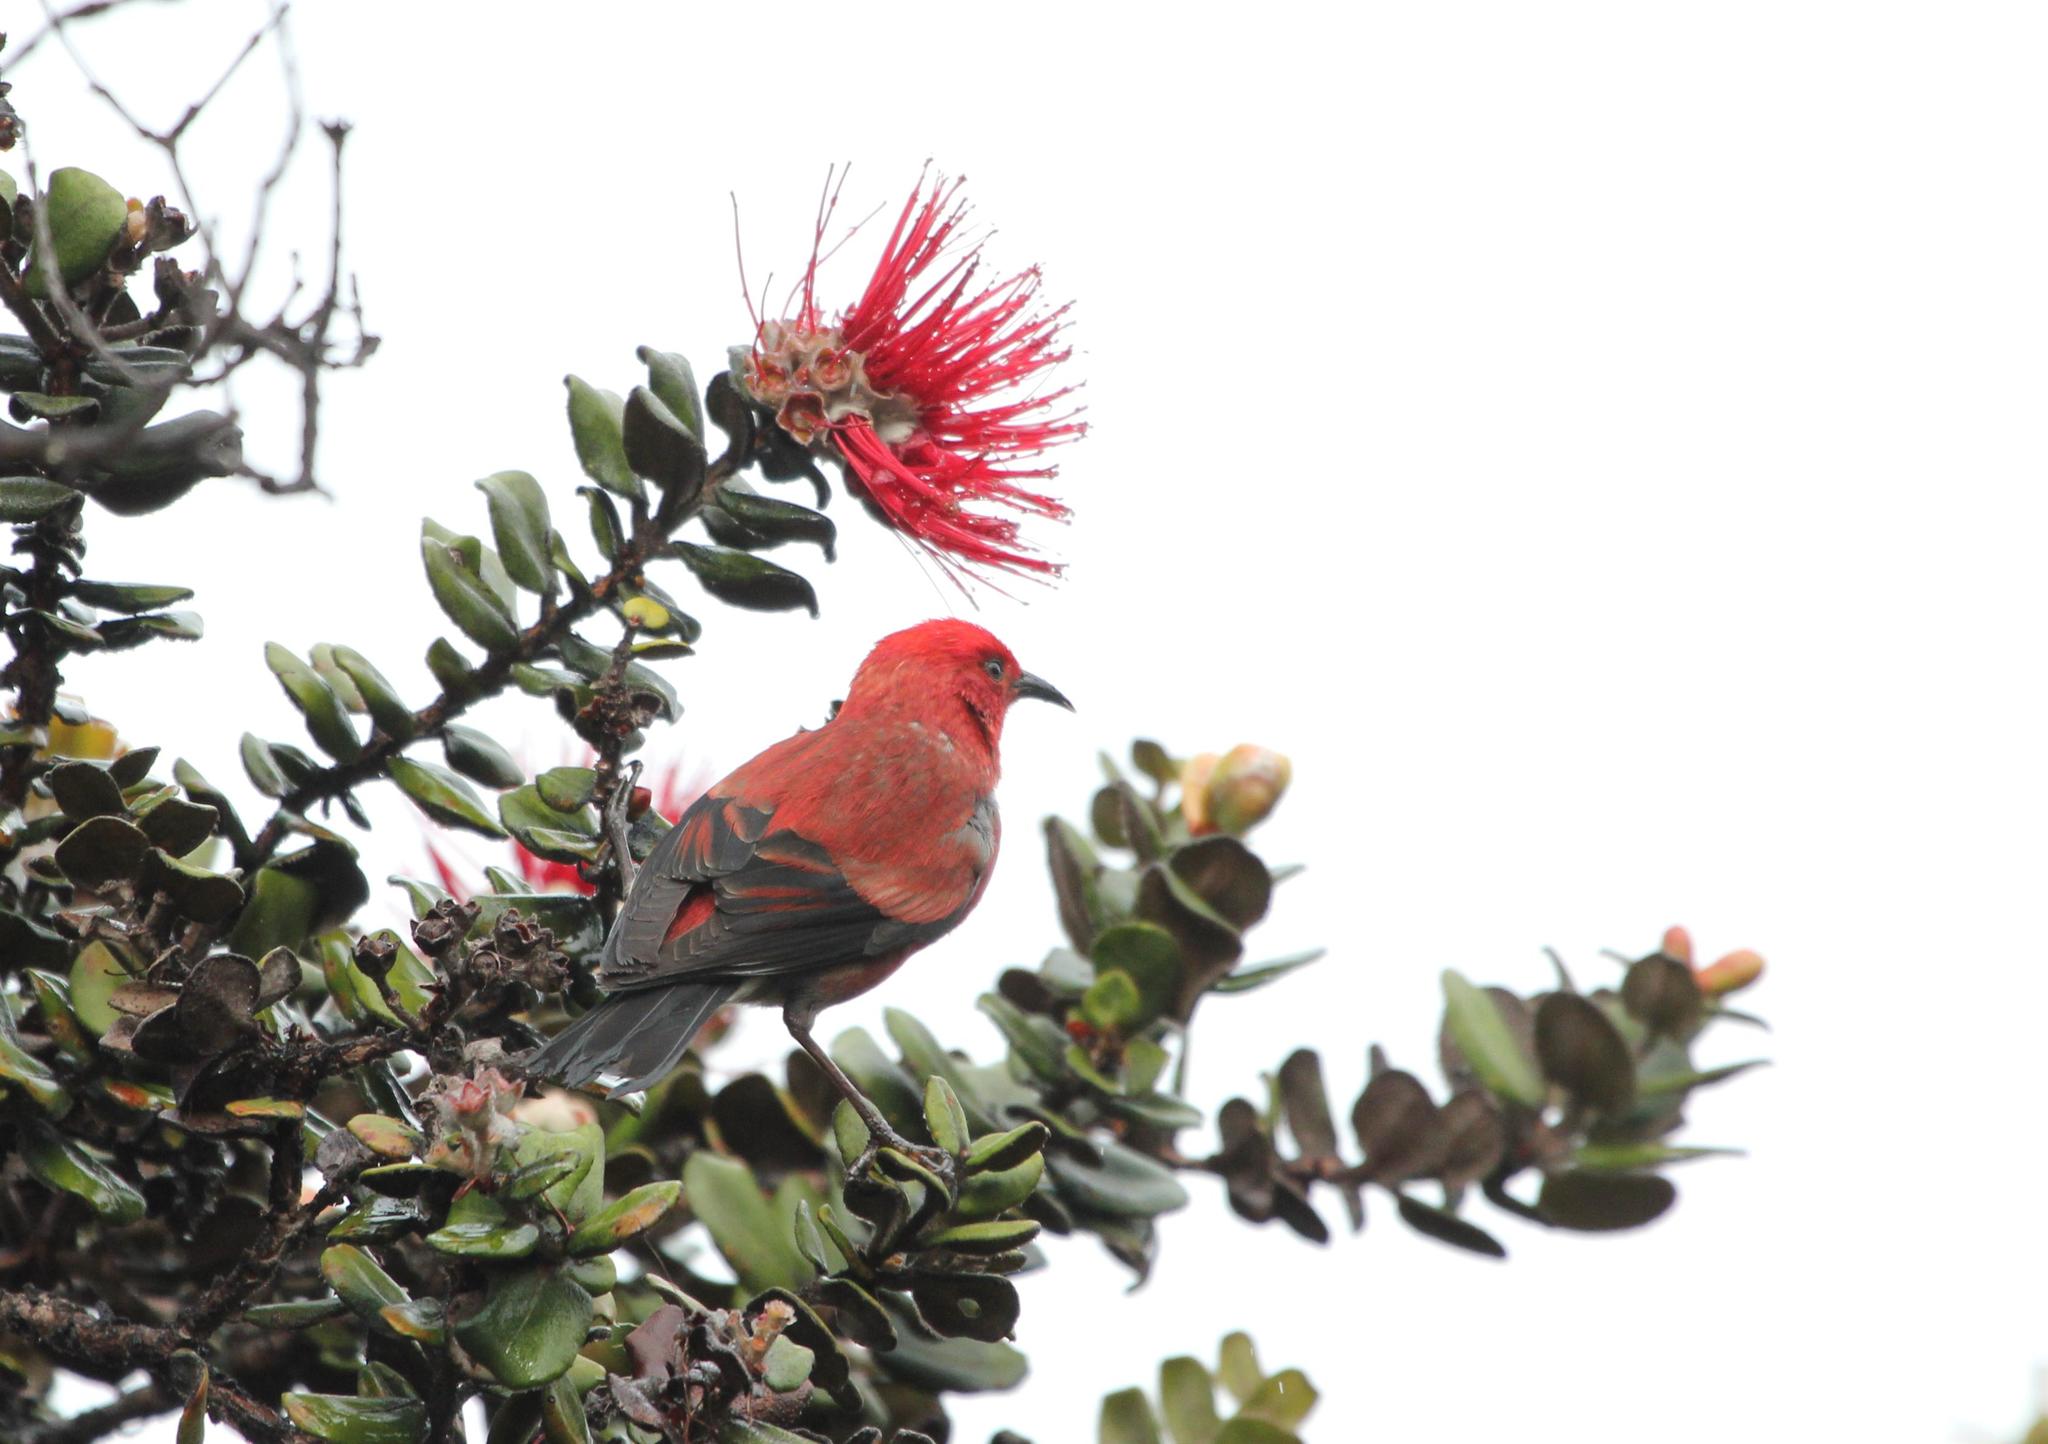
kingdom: Animalia
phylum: Chordata
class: Aves
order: Passeriformes
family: Fringillidae
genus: Himatione
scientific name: Himatione sanguinea
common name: Apapane
